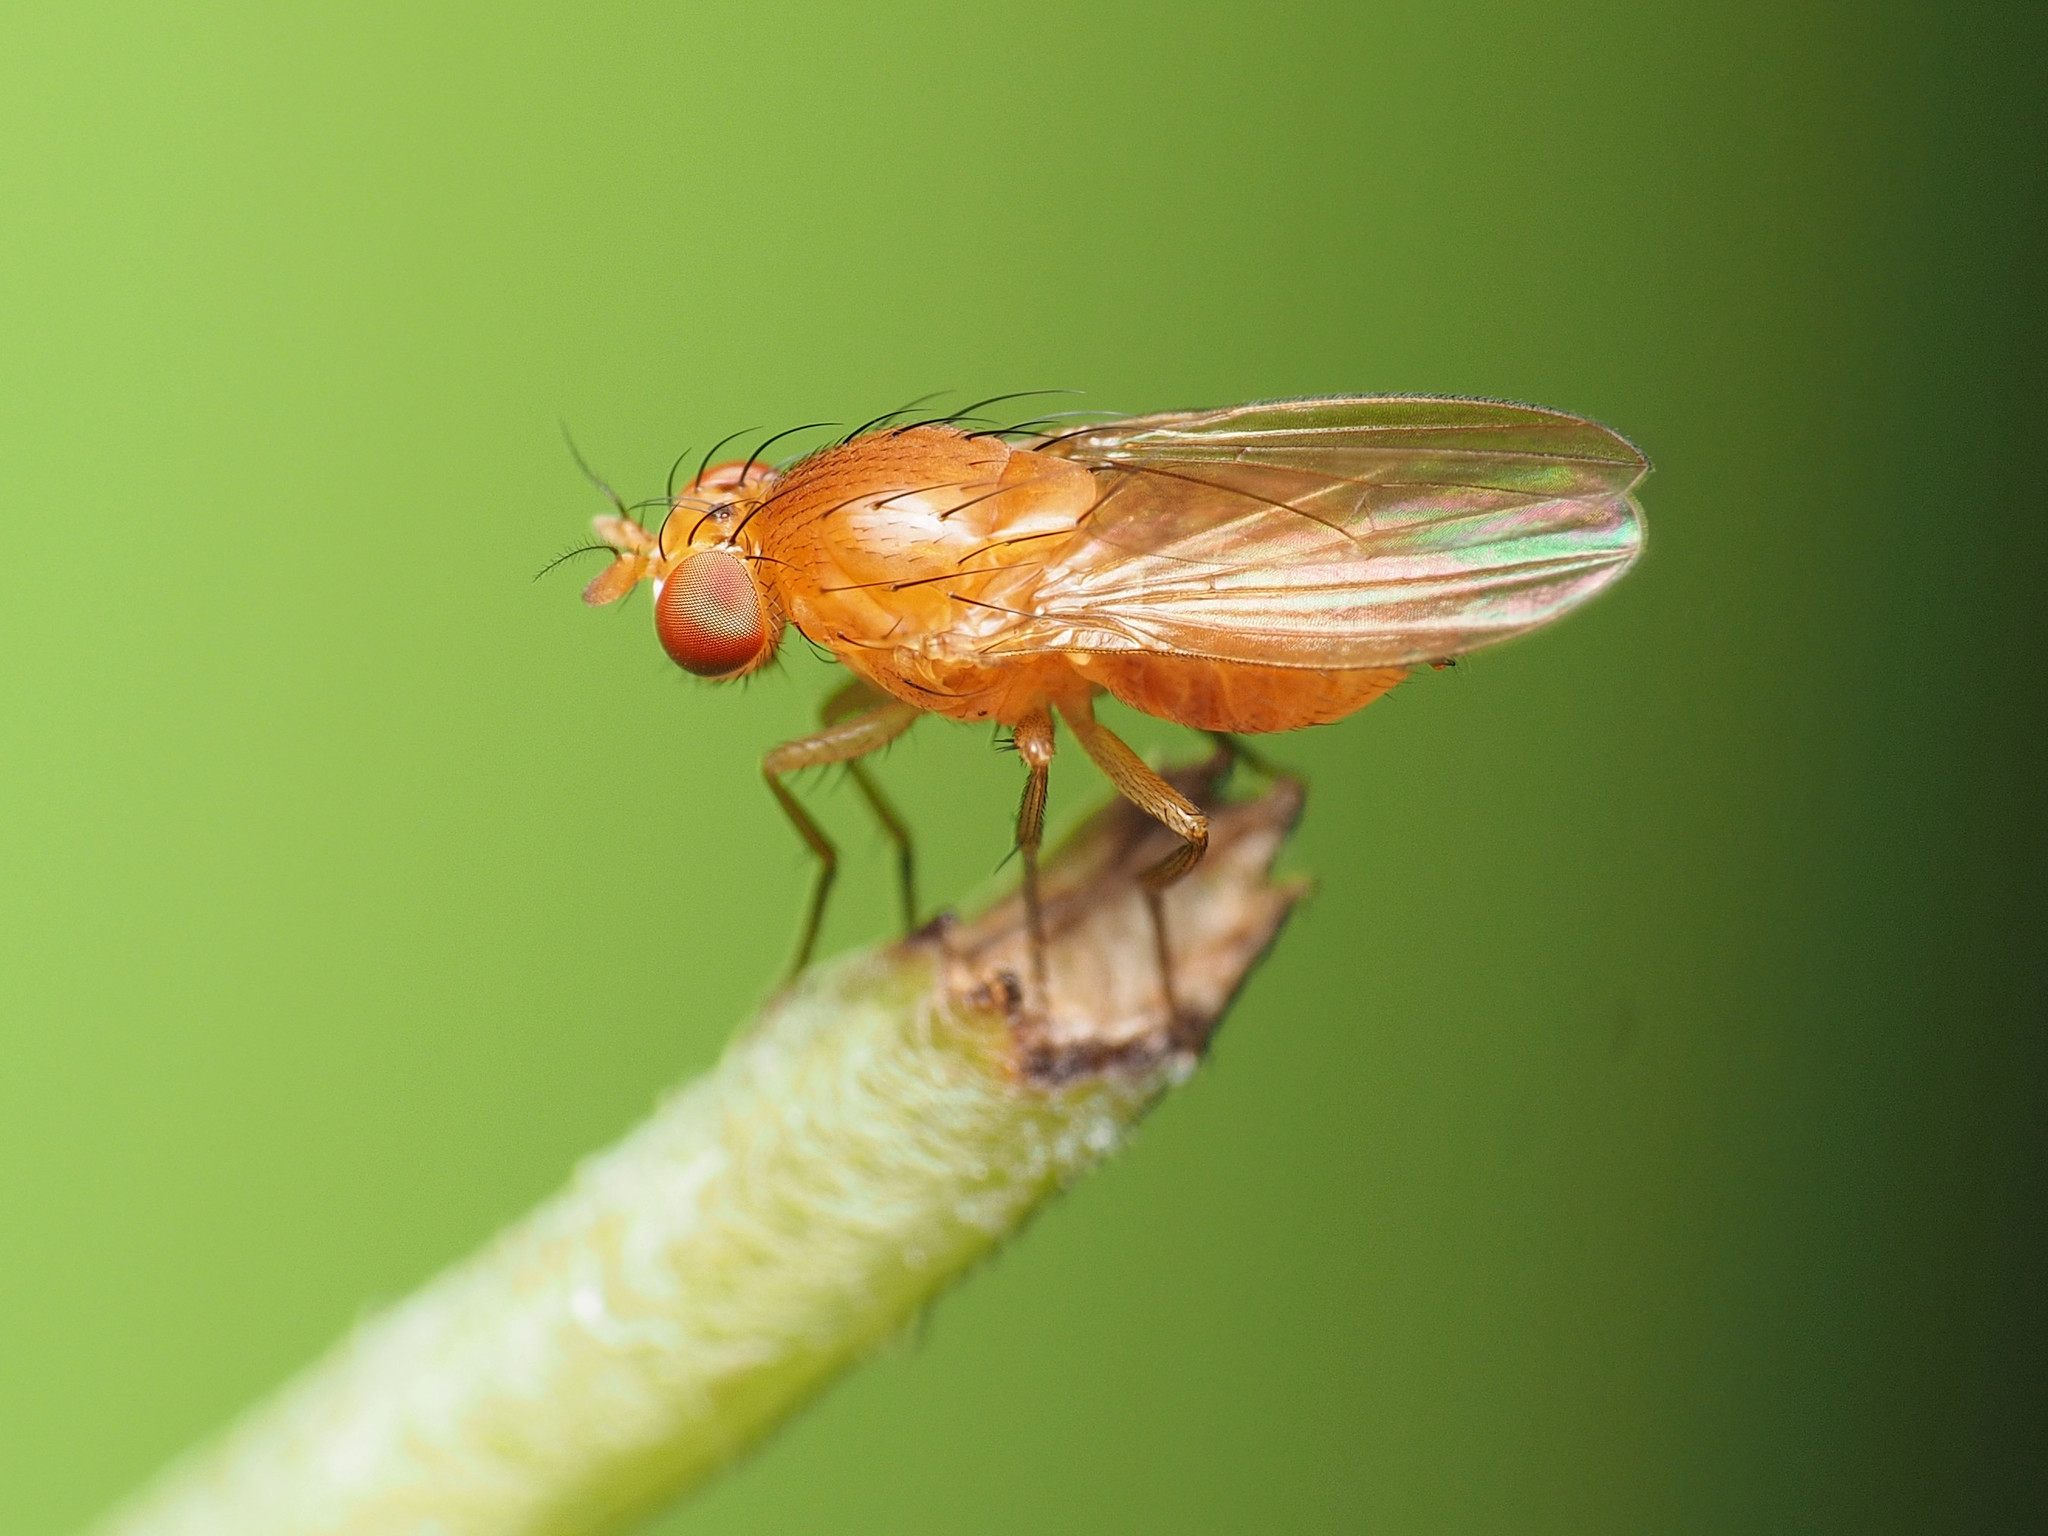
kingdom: Animalia
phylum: Arthropoda
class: Insecta
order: Diptera
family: Lauxaniidae
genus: Homoneura
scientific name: Homoneura unguiculata
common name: Beach fly
